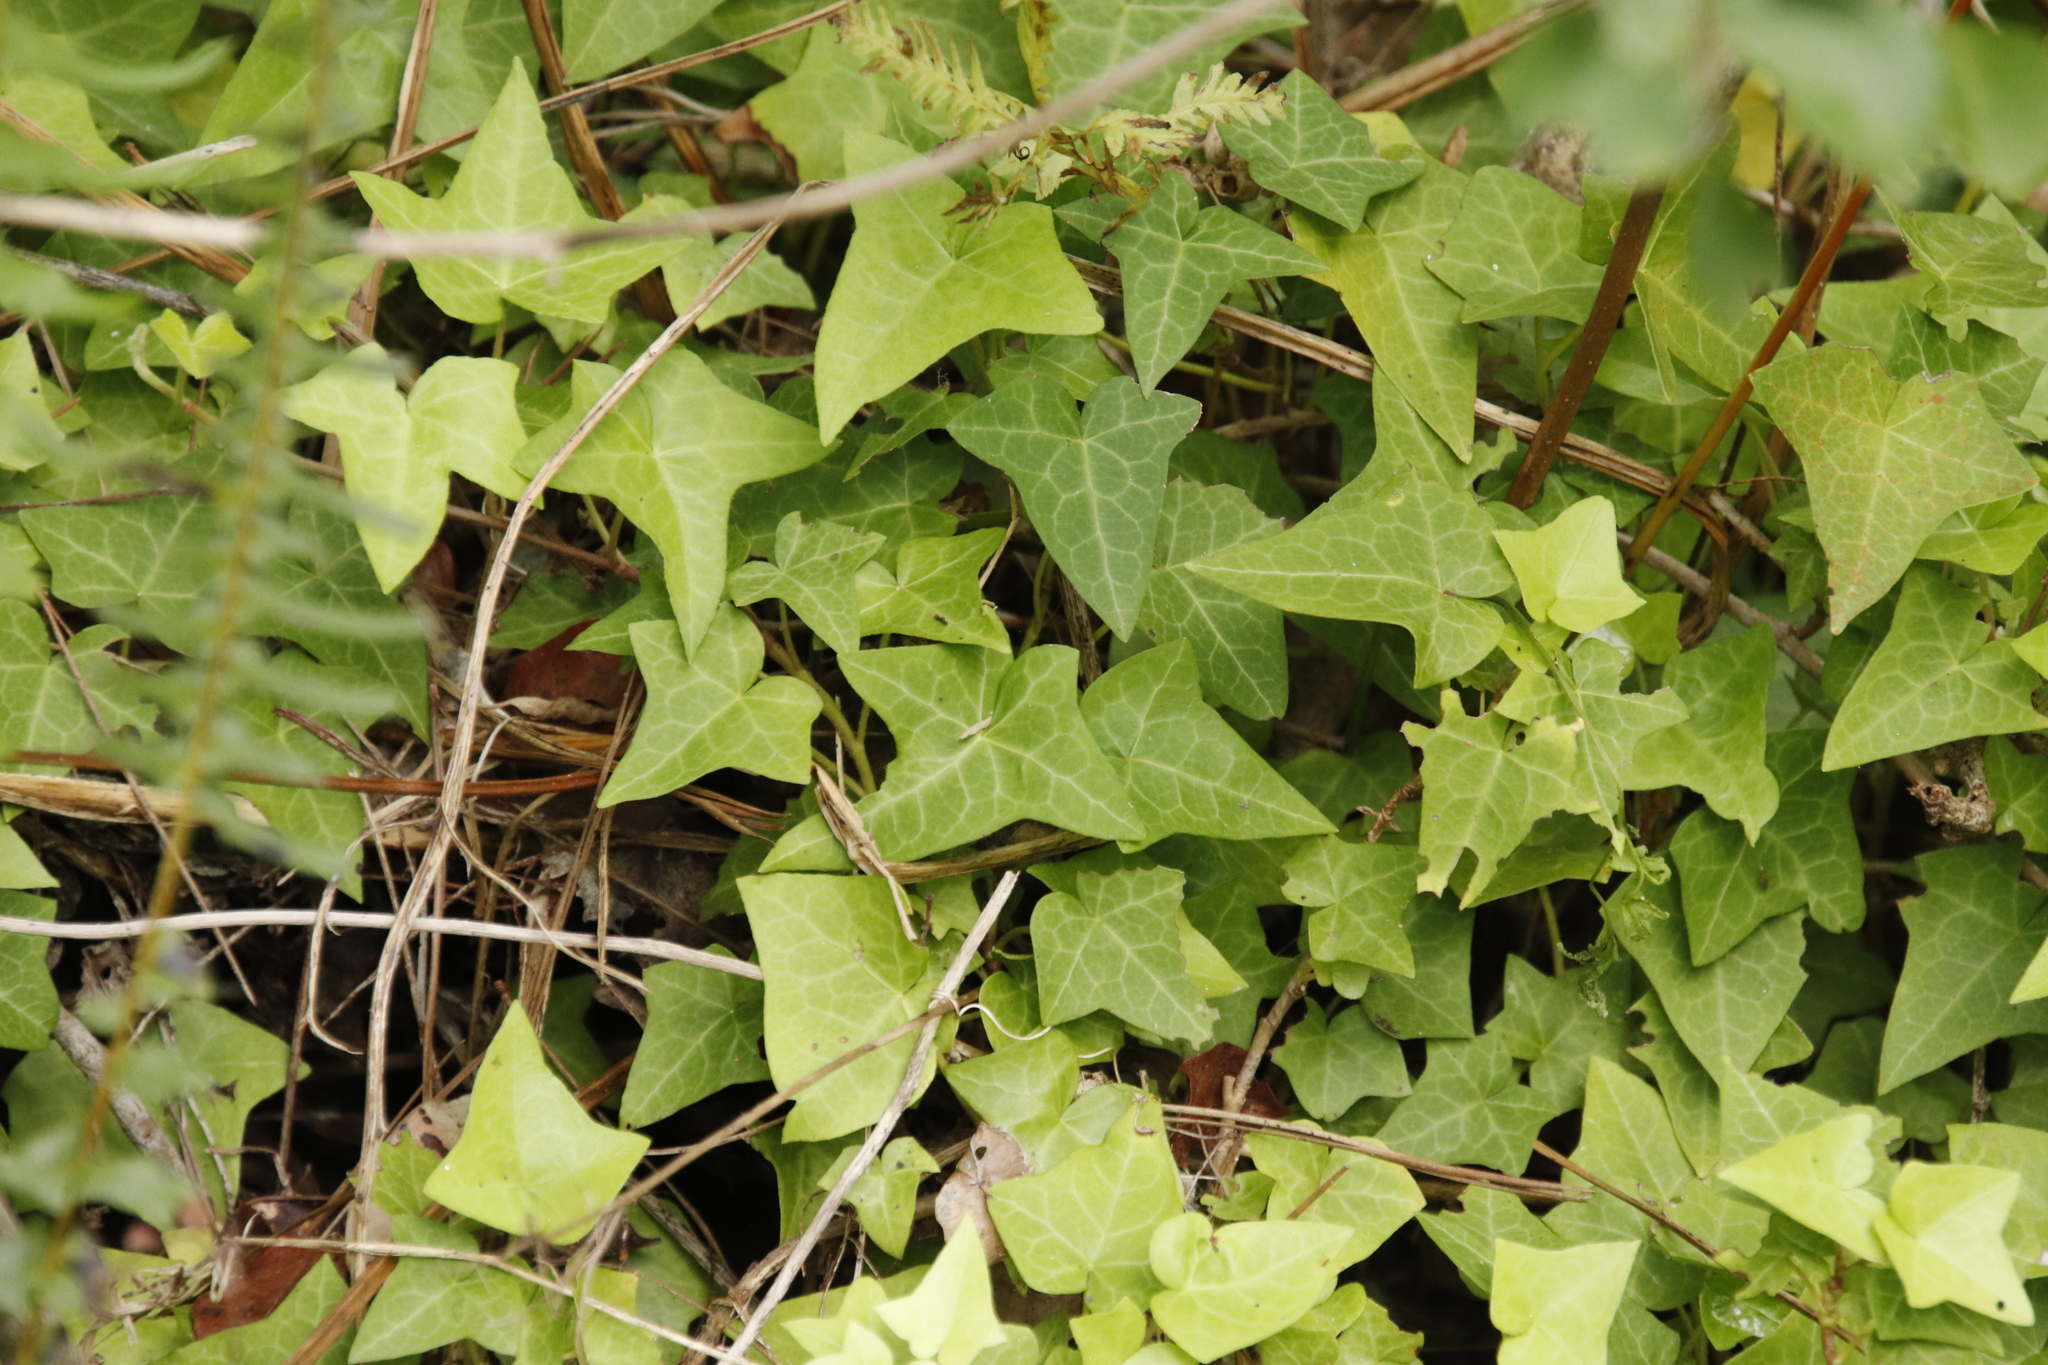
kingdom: Plantae
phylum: Tracheophyta
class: Magnoliopsida
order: Apiales
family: Araliaceae
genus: Hedera
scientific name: Hedera helix
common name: Ivy
